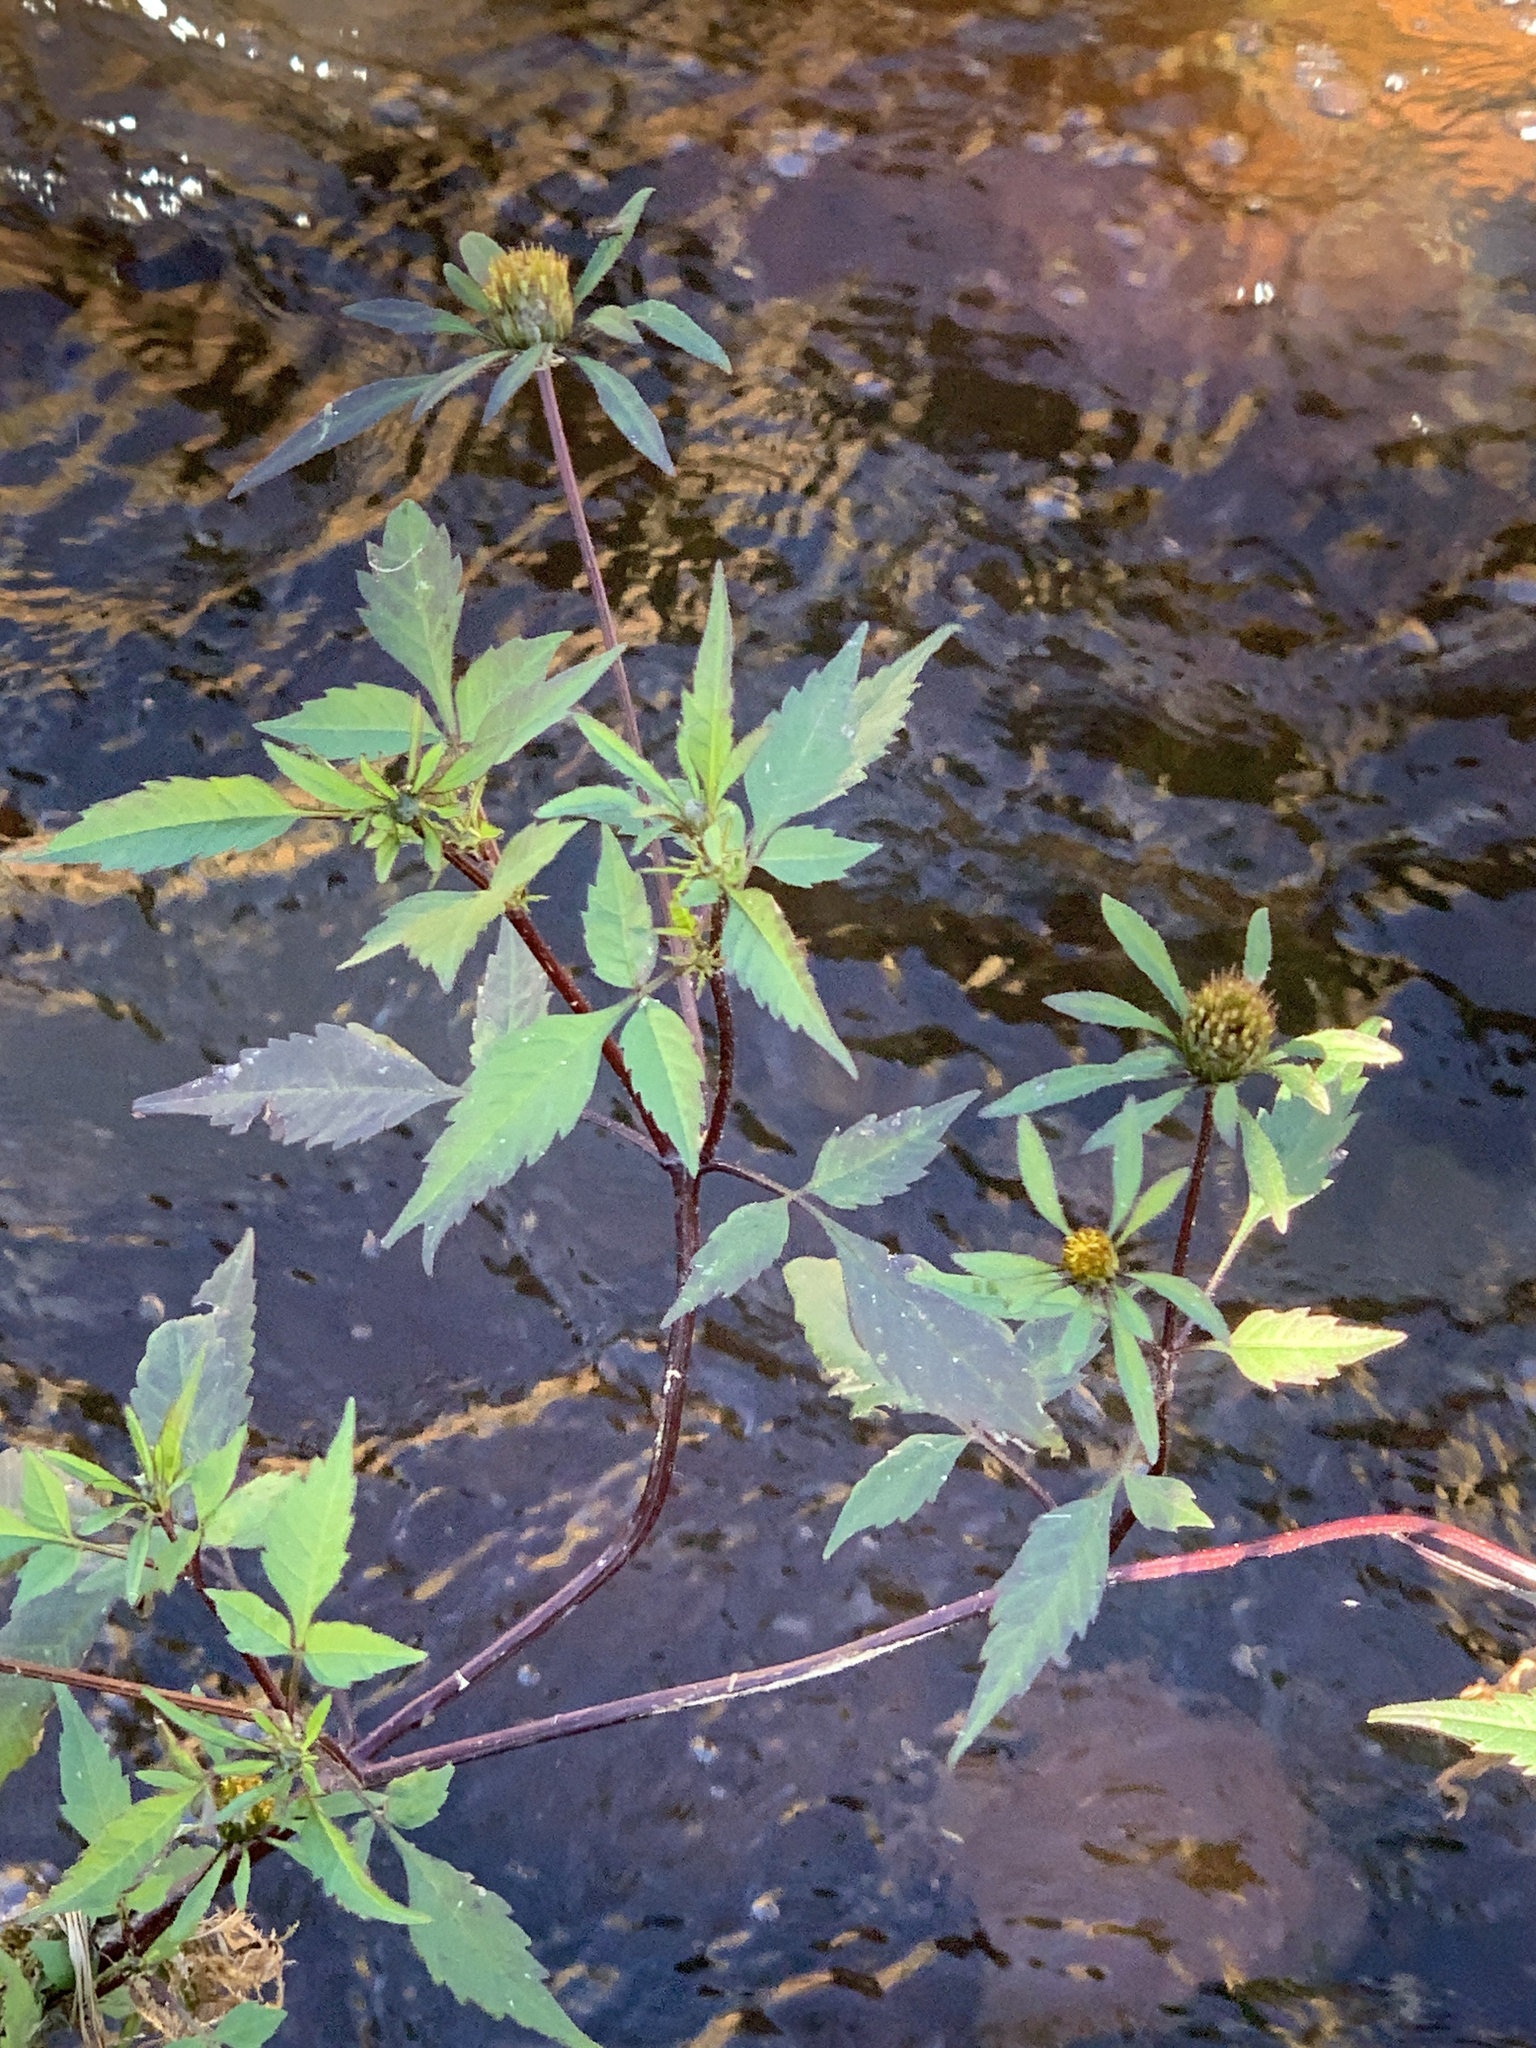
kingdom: Plantae
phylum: Tracheophyta
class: Magnoliopsida
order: Asterales
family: Asteraceae
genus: Bidens
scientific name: Bidens frondosa
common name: Beggarticks
